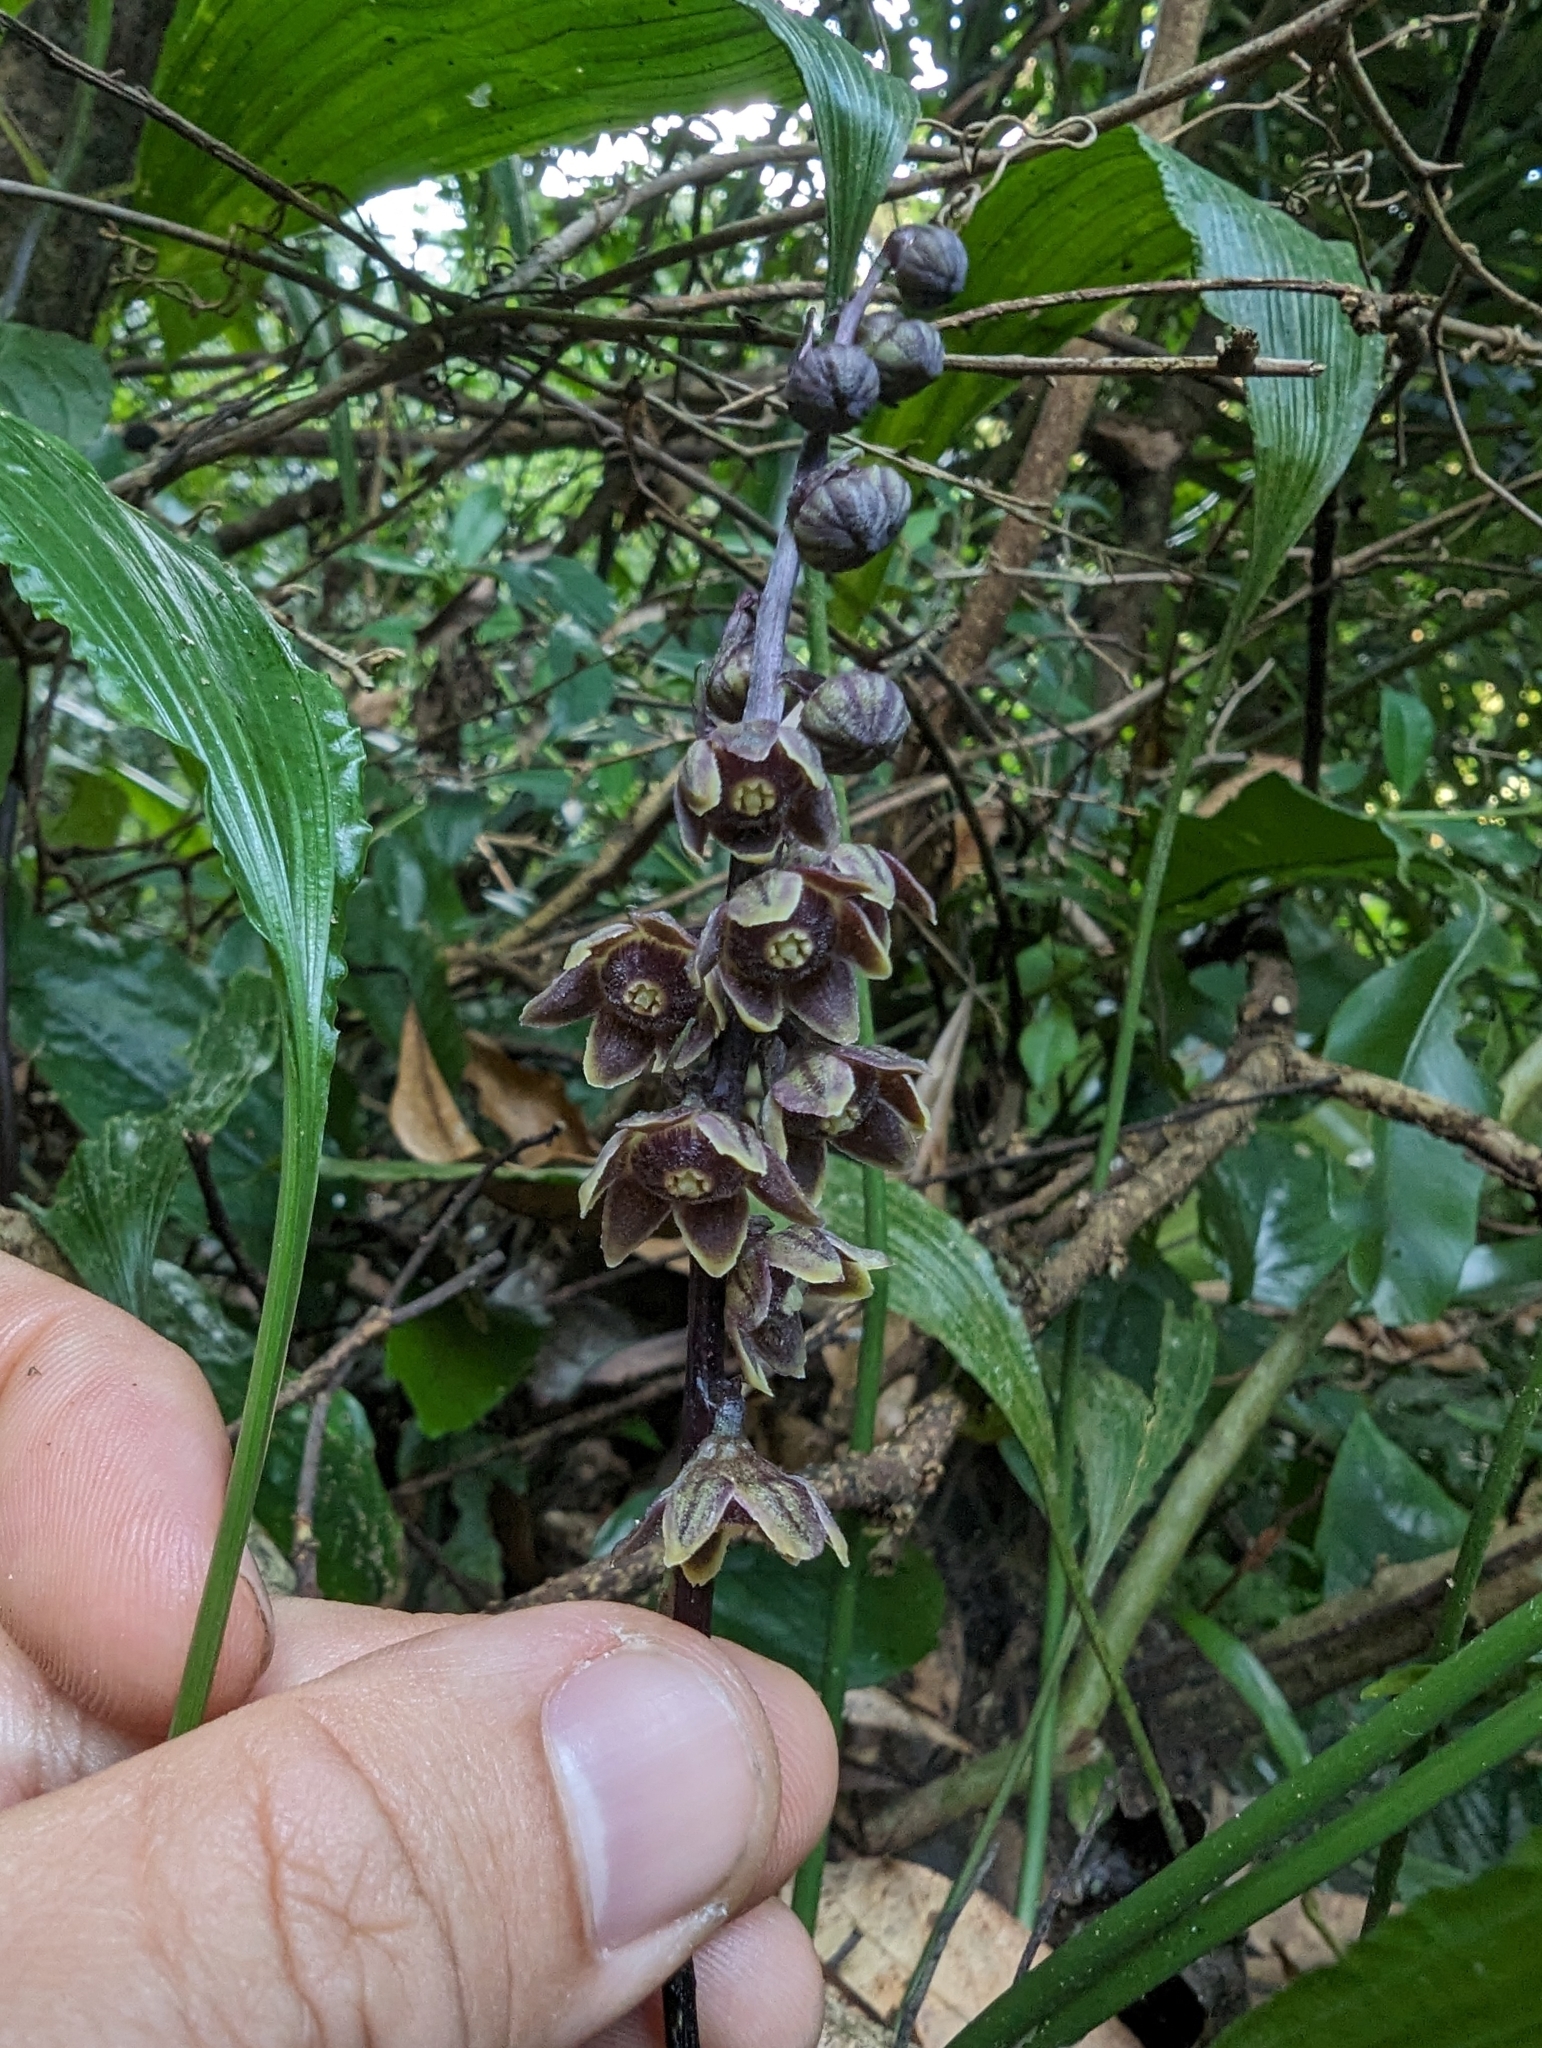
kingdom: Plantae
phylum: Tracheophyta
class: Liliopsida
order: Asparagales
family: Asparagaceae
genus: Peliosanthes
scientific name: Peliosanthes macrostegia
